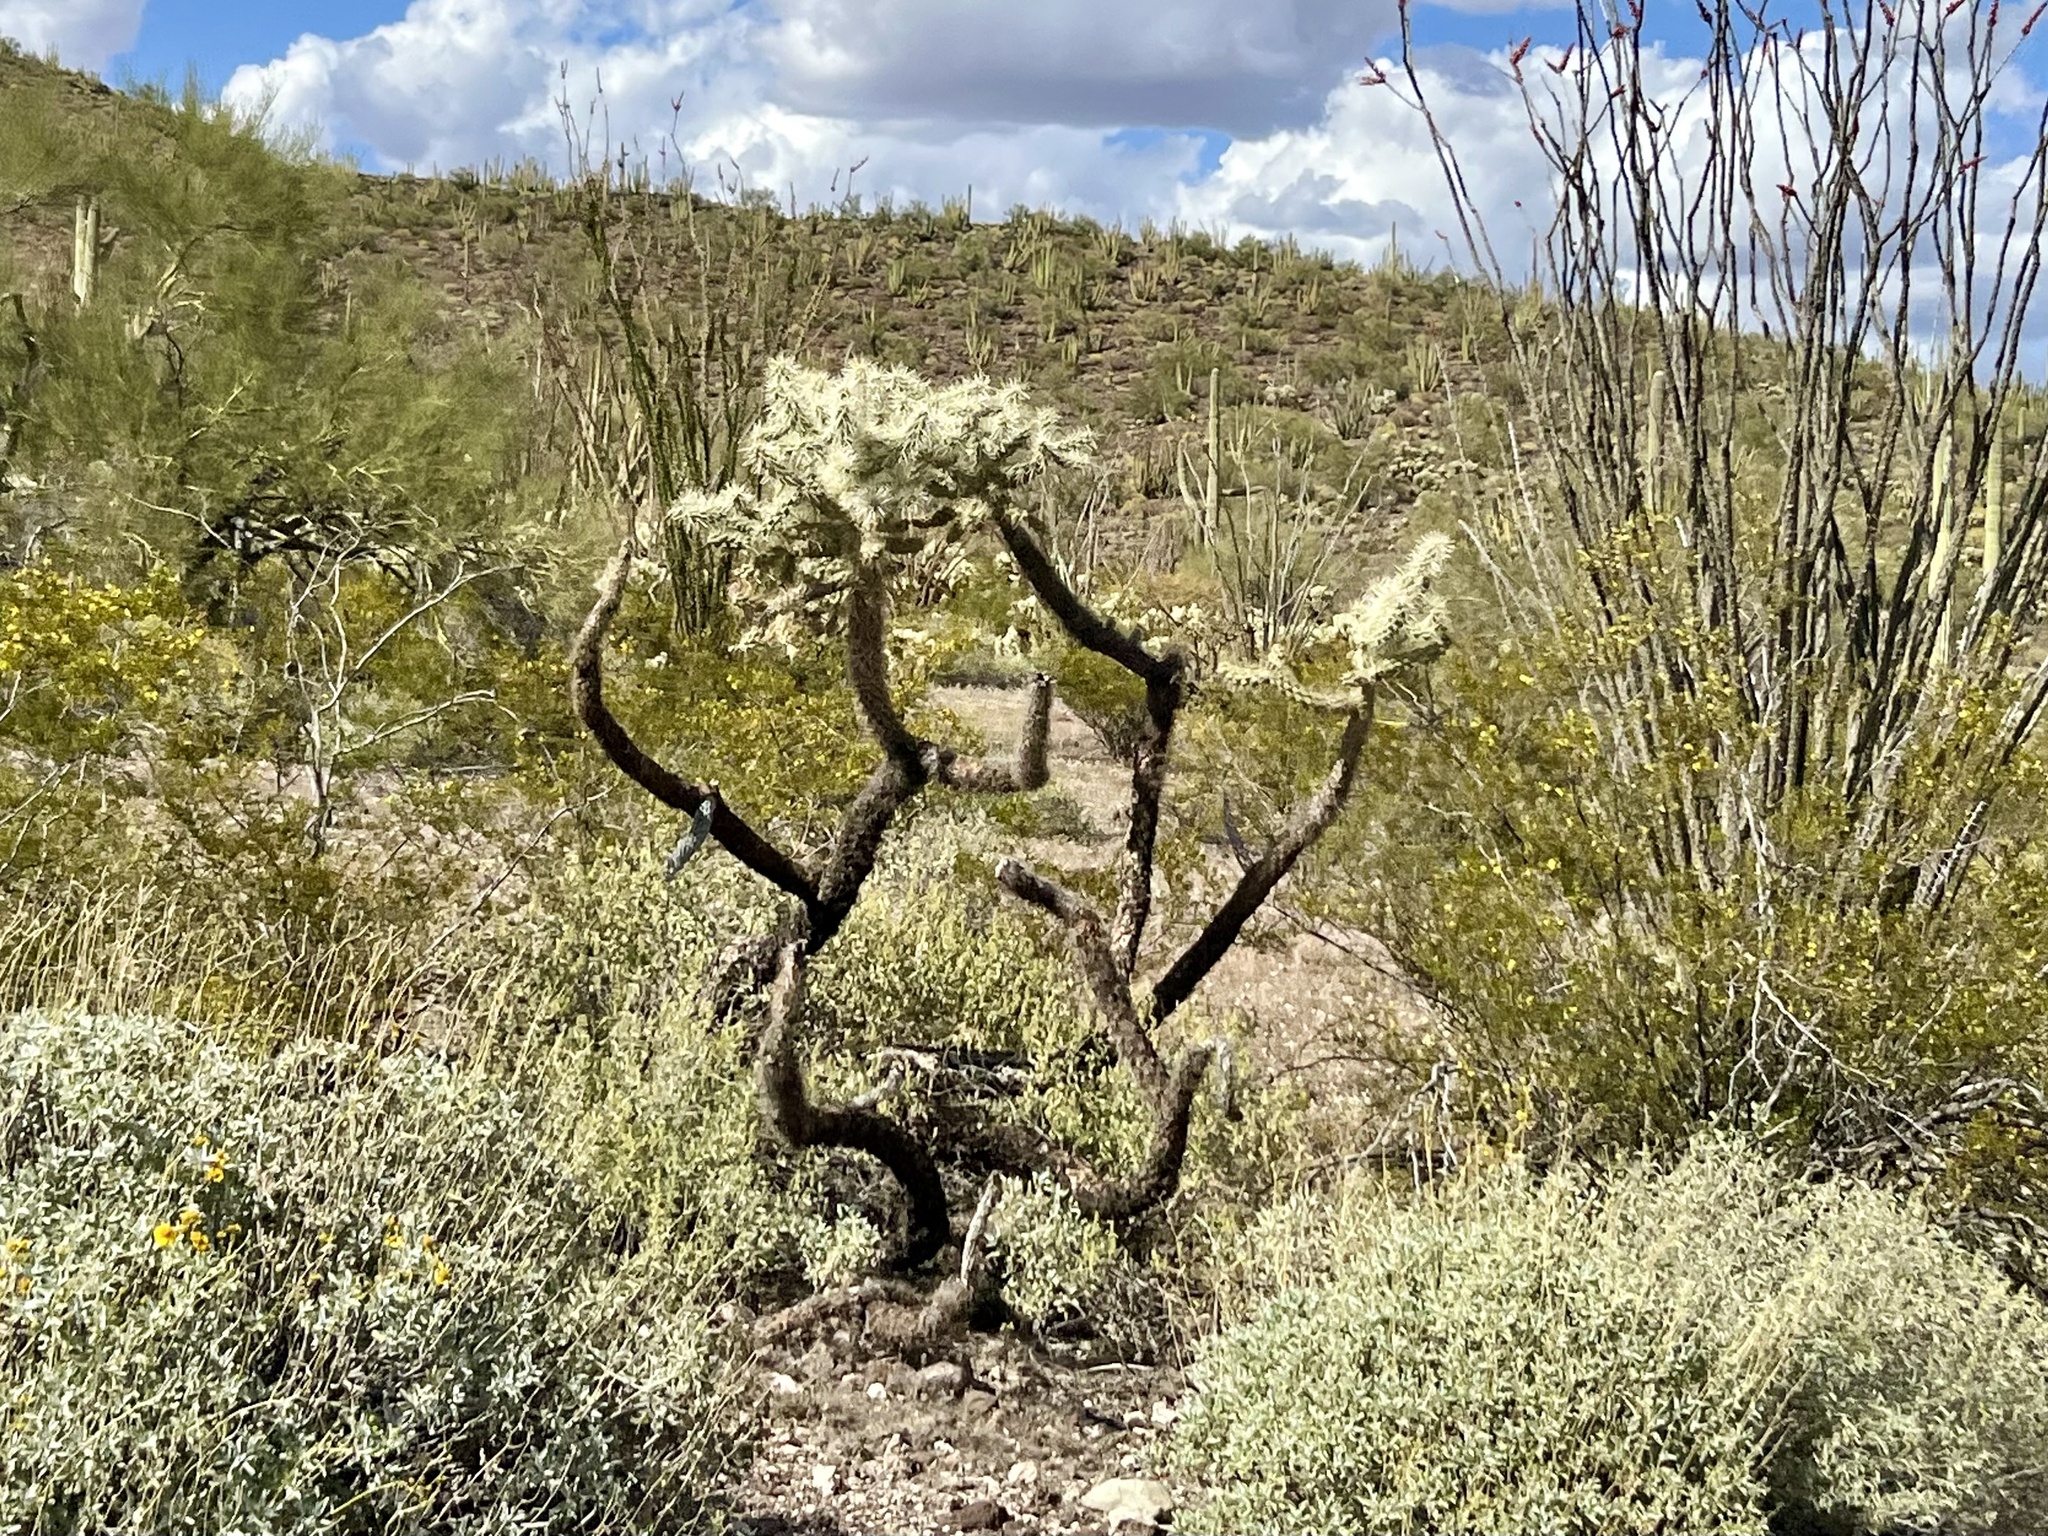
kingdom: Plantae
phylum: Tracheophyta
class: Magnoliopsida
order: Caryophyllales
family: Cactaceae
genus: Cylindropuntia
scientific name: Cylindropuntia fulgida
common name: Jumping cholla
